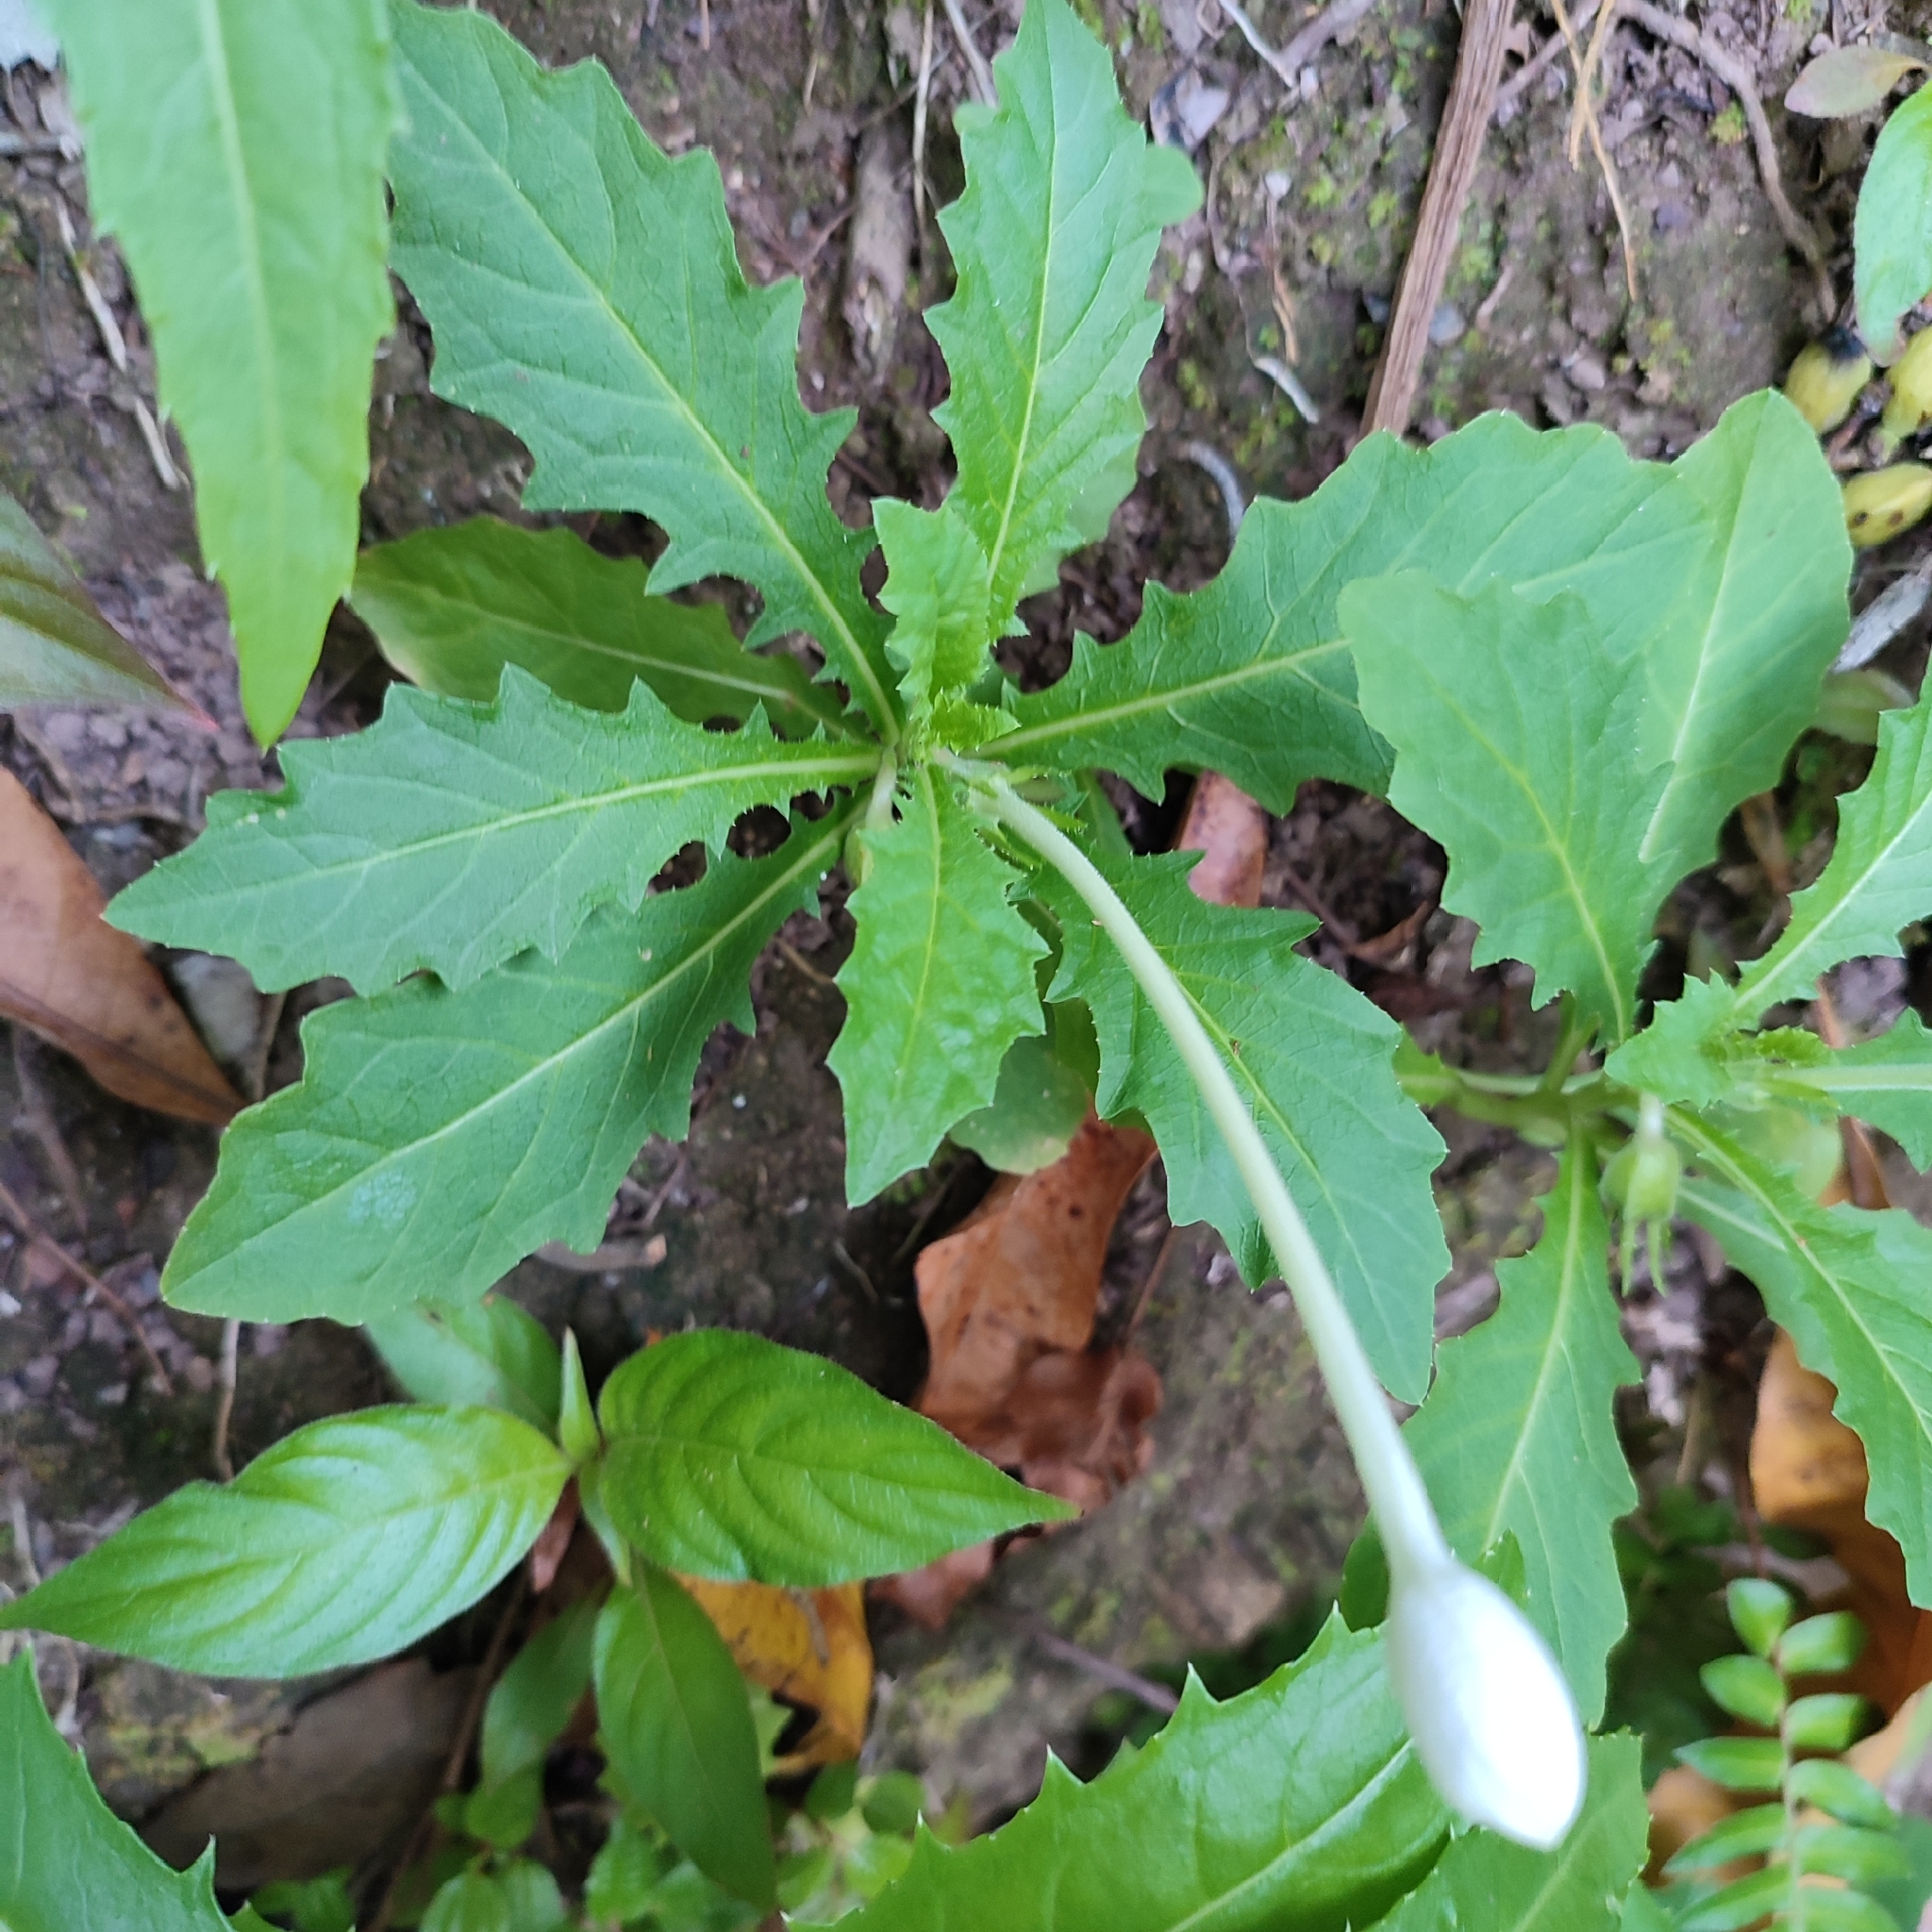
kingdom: Plantae
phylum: Tracheophyta
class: Magnoliopsida
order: Asterales
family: Campanulaceae
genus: Hippobroma
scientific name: Hippobroma longiflora
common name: Madamfate
